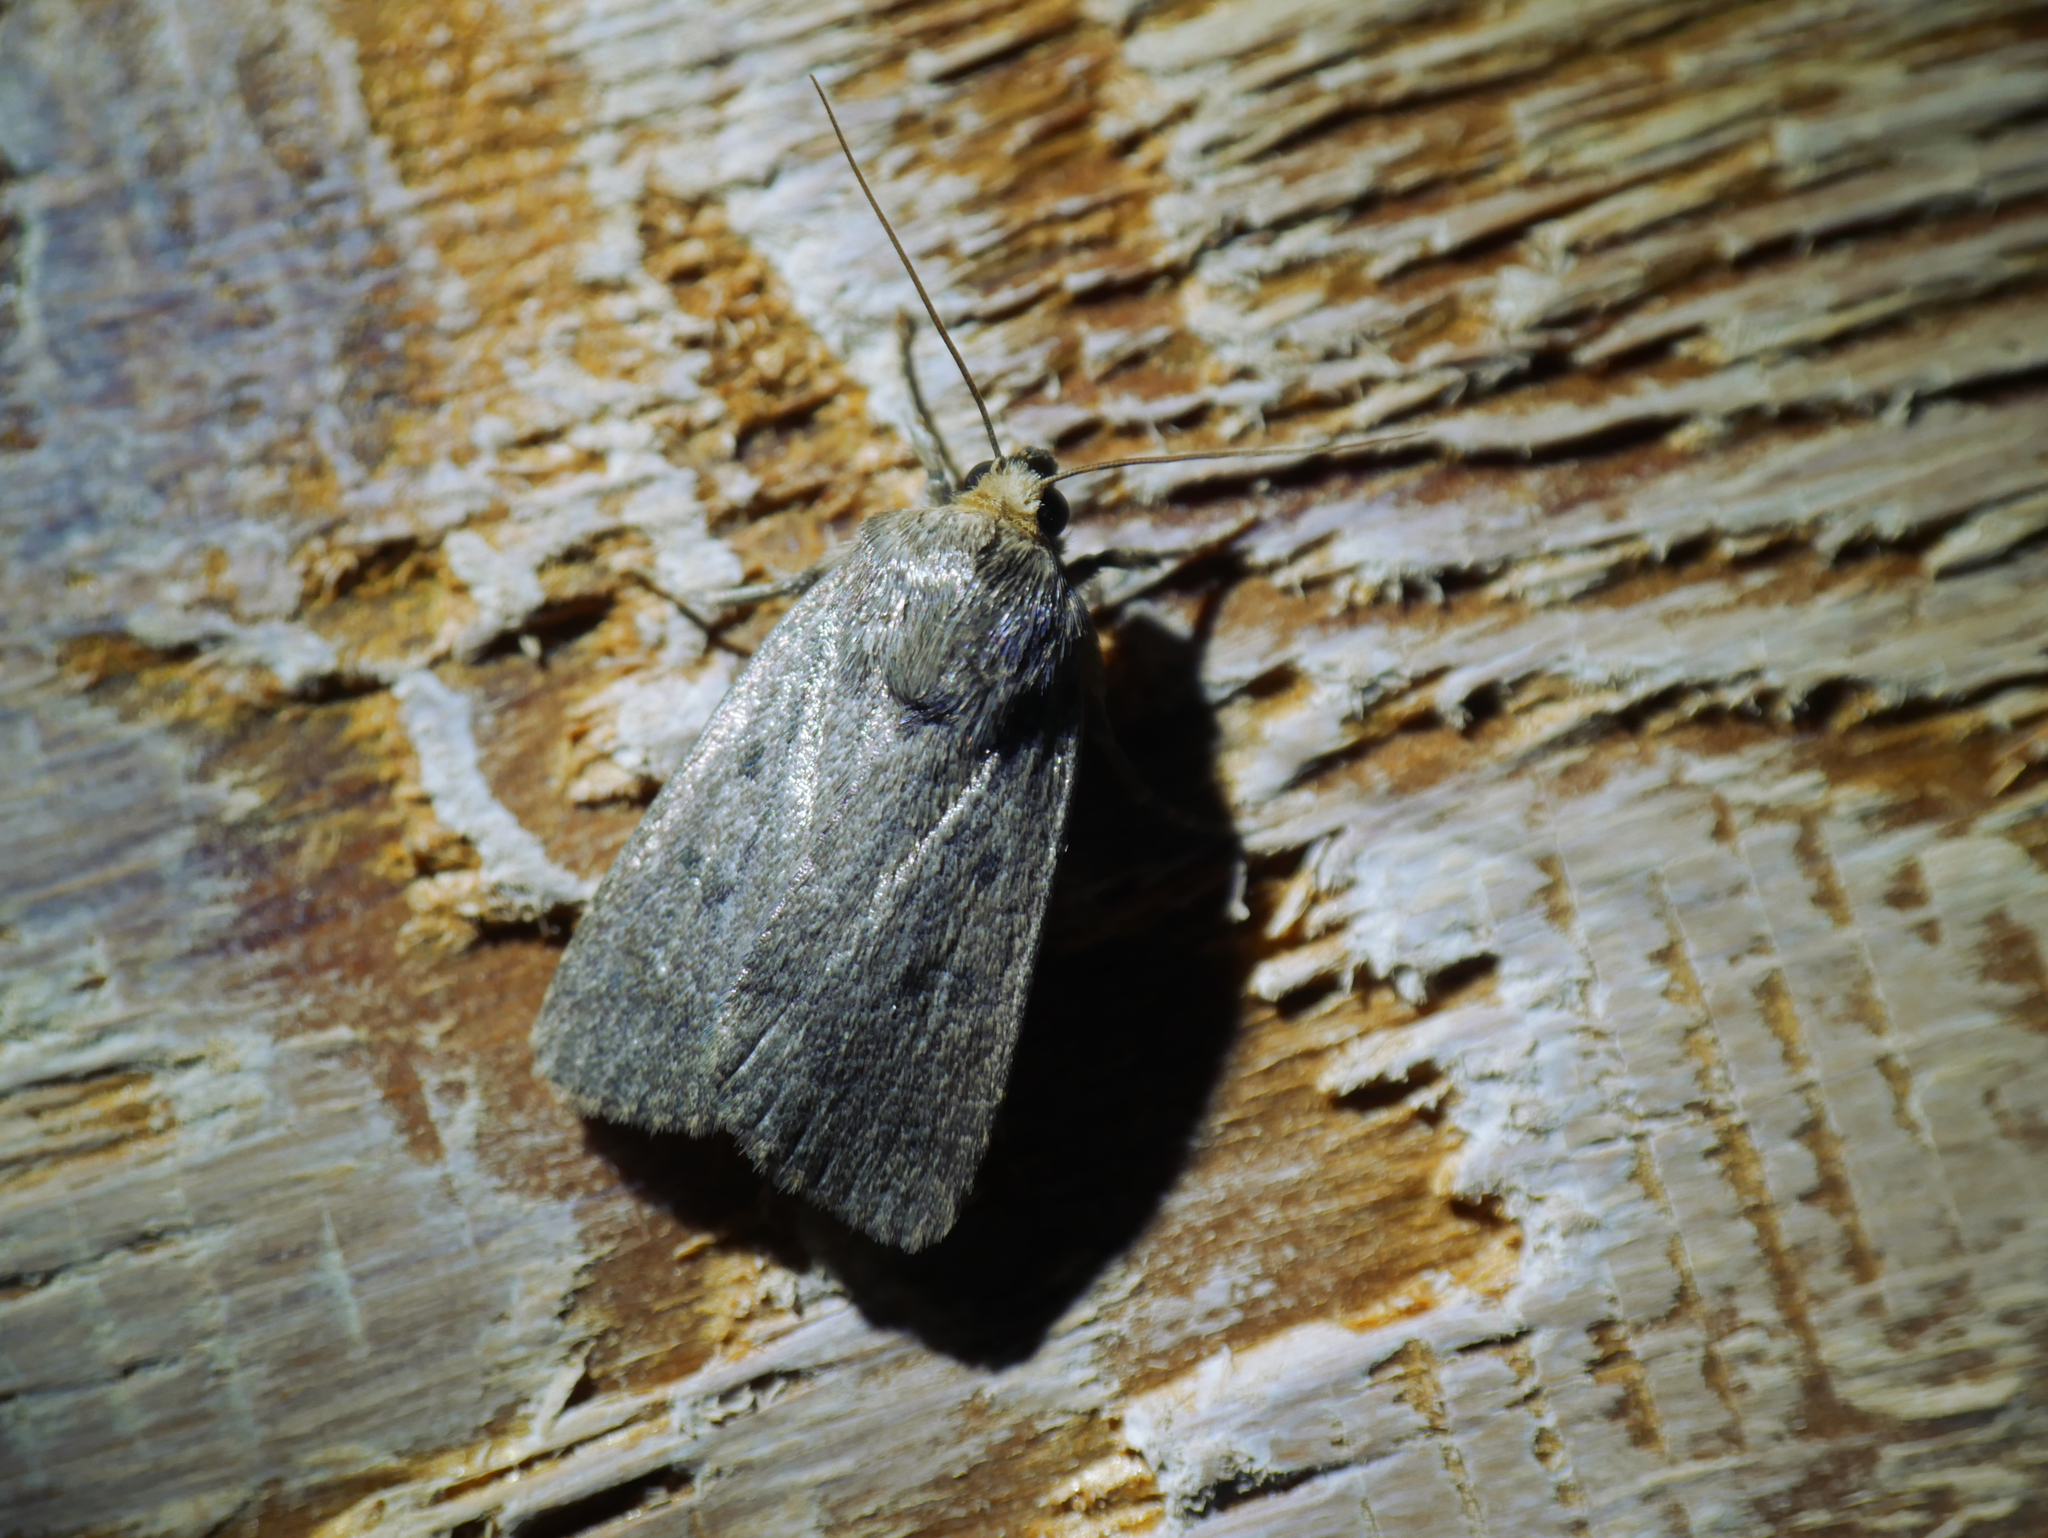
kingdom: Animalia
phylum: Arthropoda
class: Insecta
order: Lepidoptera
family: Noctuidae
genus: Amphipyra
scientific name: Amphipyra tragopoginis
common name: Mouse moth
